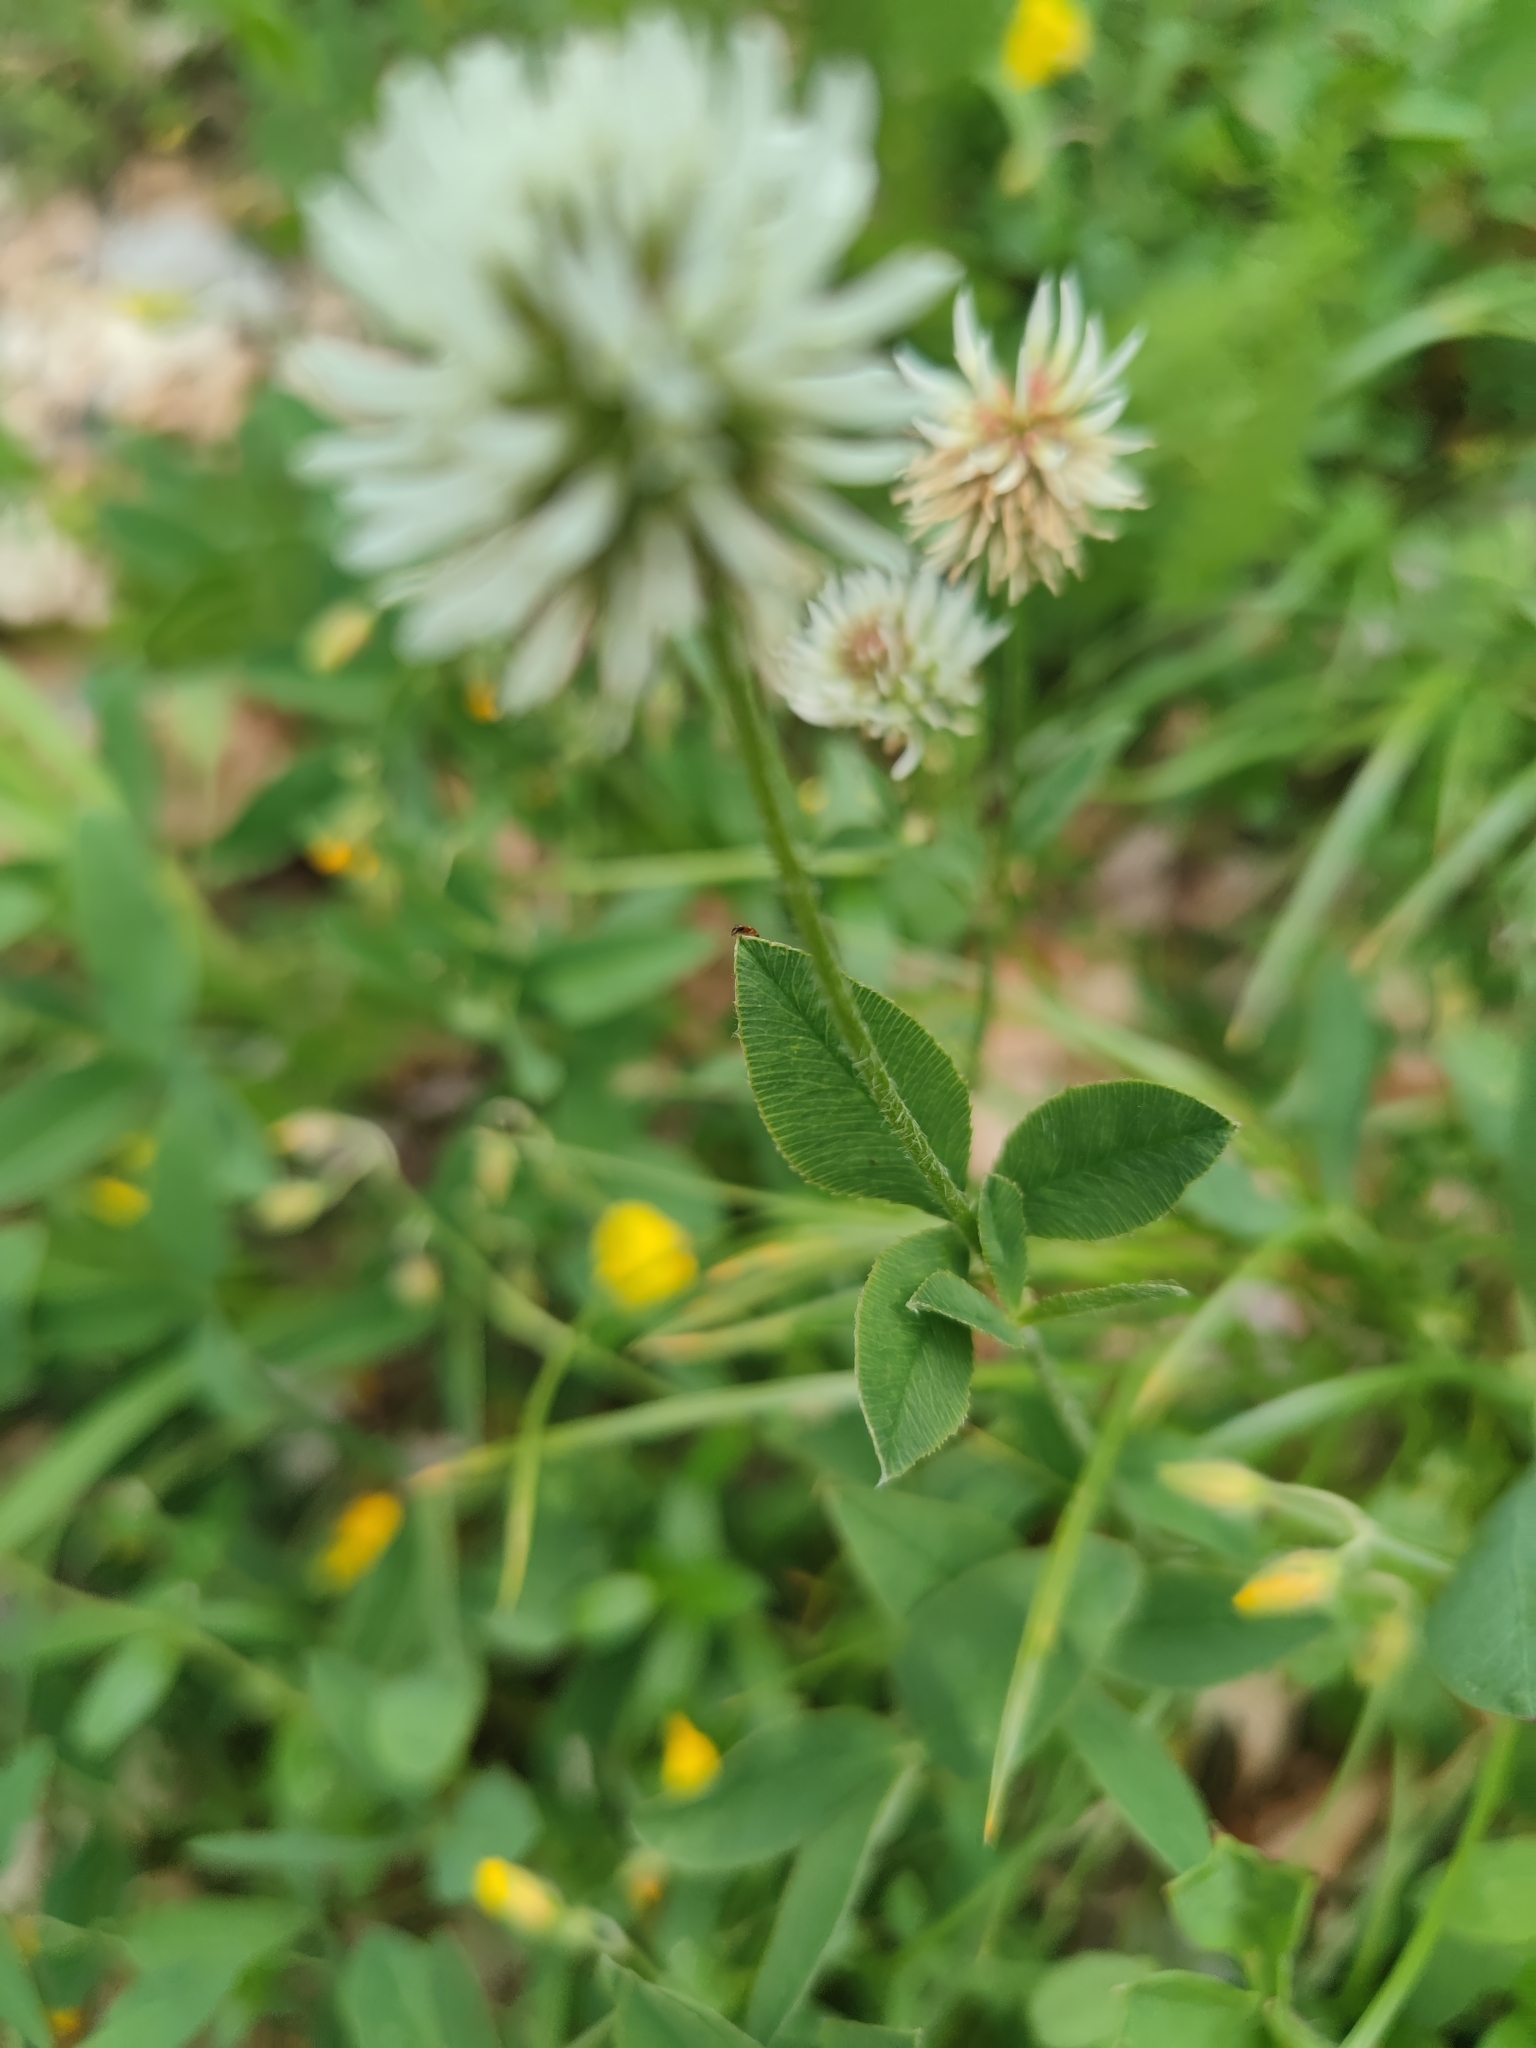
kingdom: Plantae
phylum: Tracheophyta
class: Magnoliopsida
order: Fabales
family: Fabaceae
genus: Trifolium
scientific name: Trifolium montanum
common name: Mountain clover
